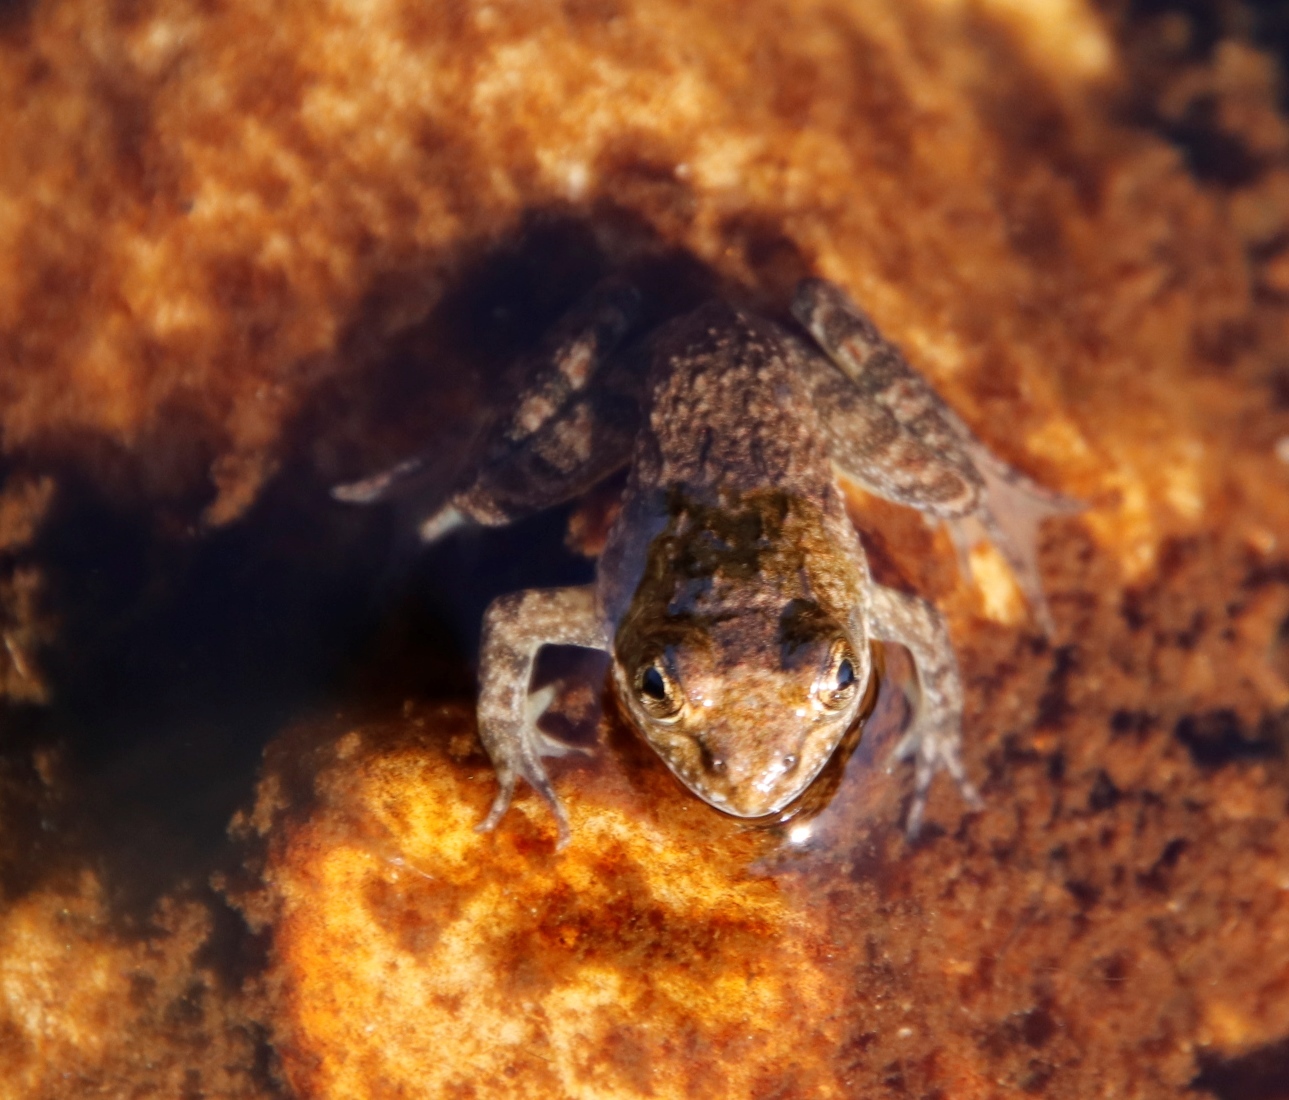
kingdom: Animalia
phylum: Chordata
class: Amphibia
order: Anura
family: Pyxicephalidae
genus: Amietia
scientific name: Amietia fuscigula
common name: Cape rana
